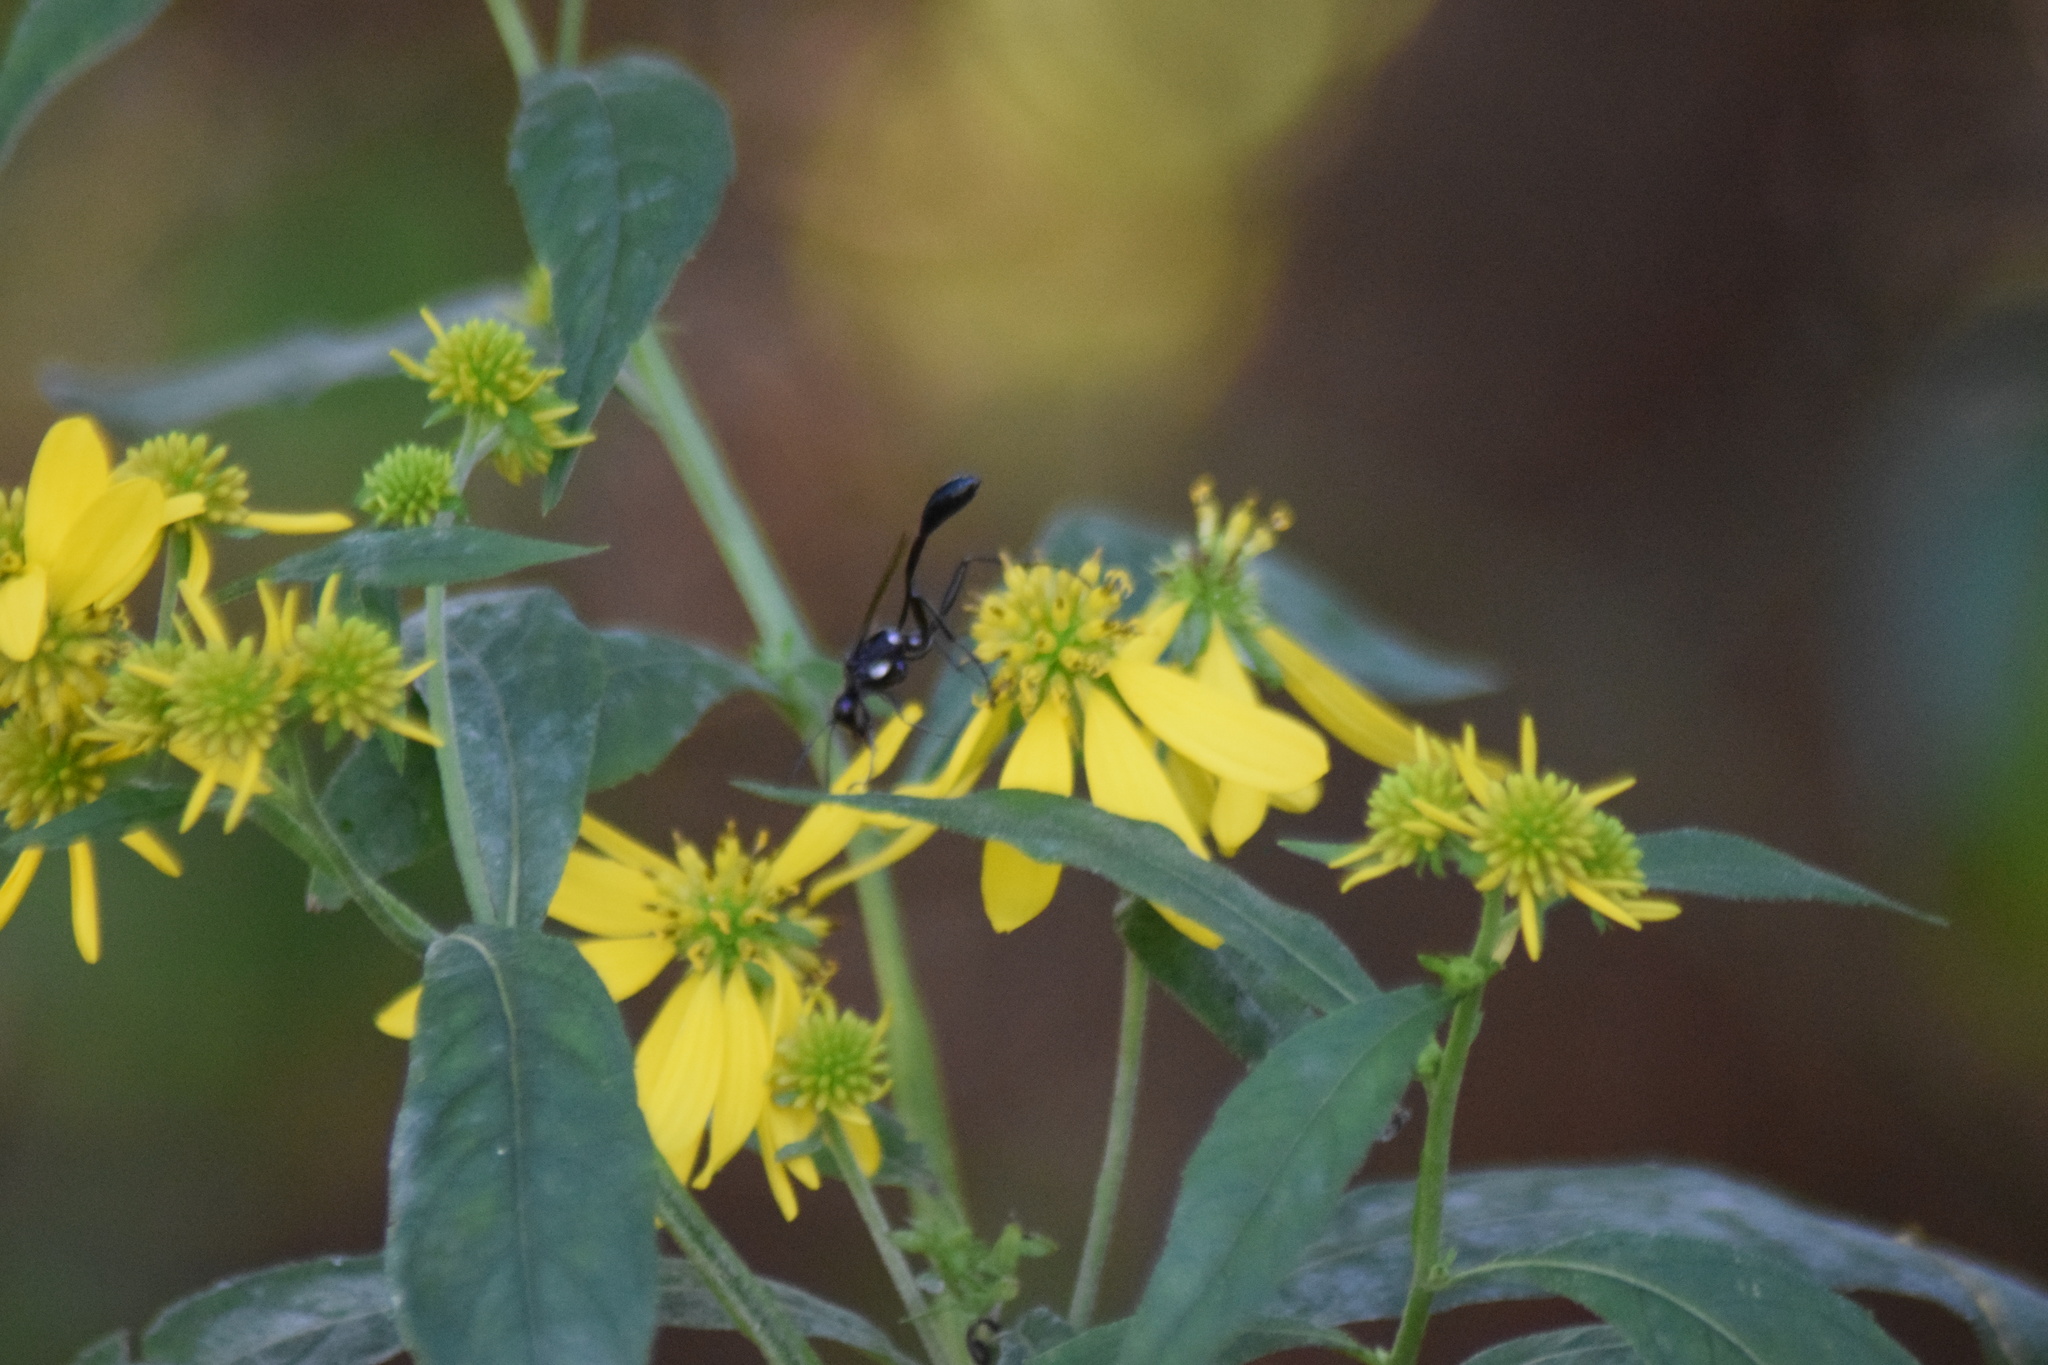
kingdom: Animalia
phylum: Arthropoda
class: Insecta
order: Hymenoptera
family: Sphecidae
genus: Eremnophila
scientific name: Eremnophila aureonotata
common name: Gold-marked thread-waisted wasp
